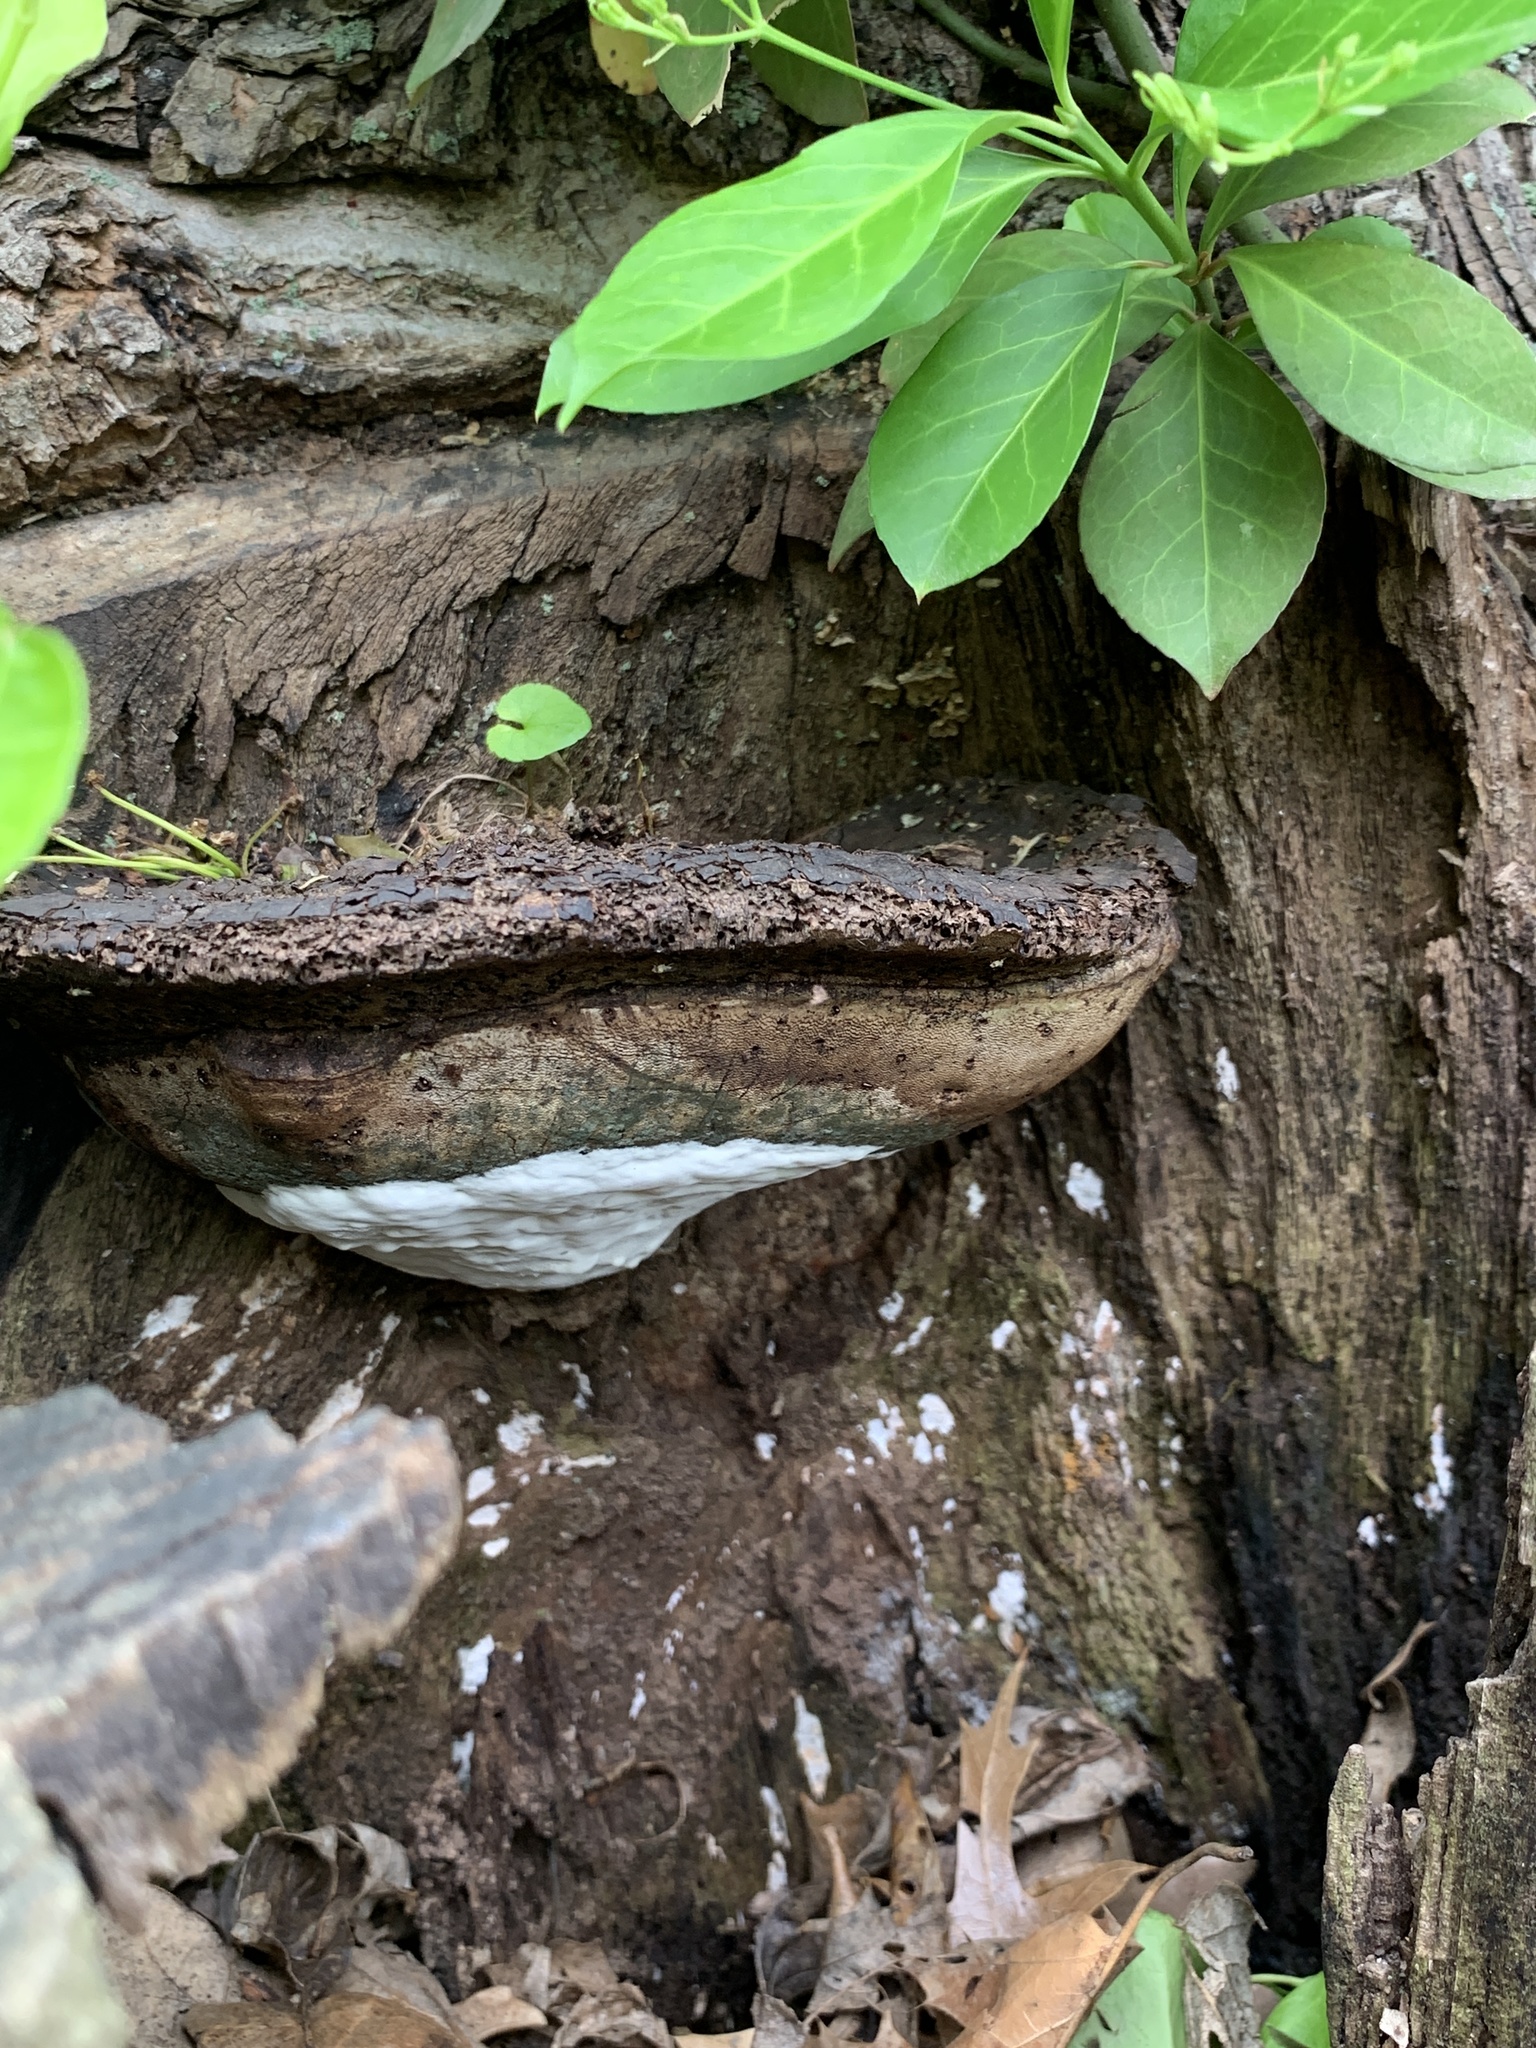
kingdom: Fungi
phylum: Basidiomycota
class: Agaricomycetes
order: Polyporales
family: Polyporaceae
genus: Ganoderma
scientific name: Ganoderma applanatum
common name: Artist's bracket
